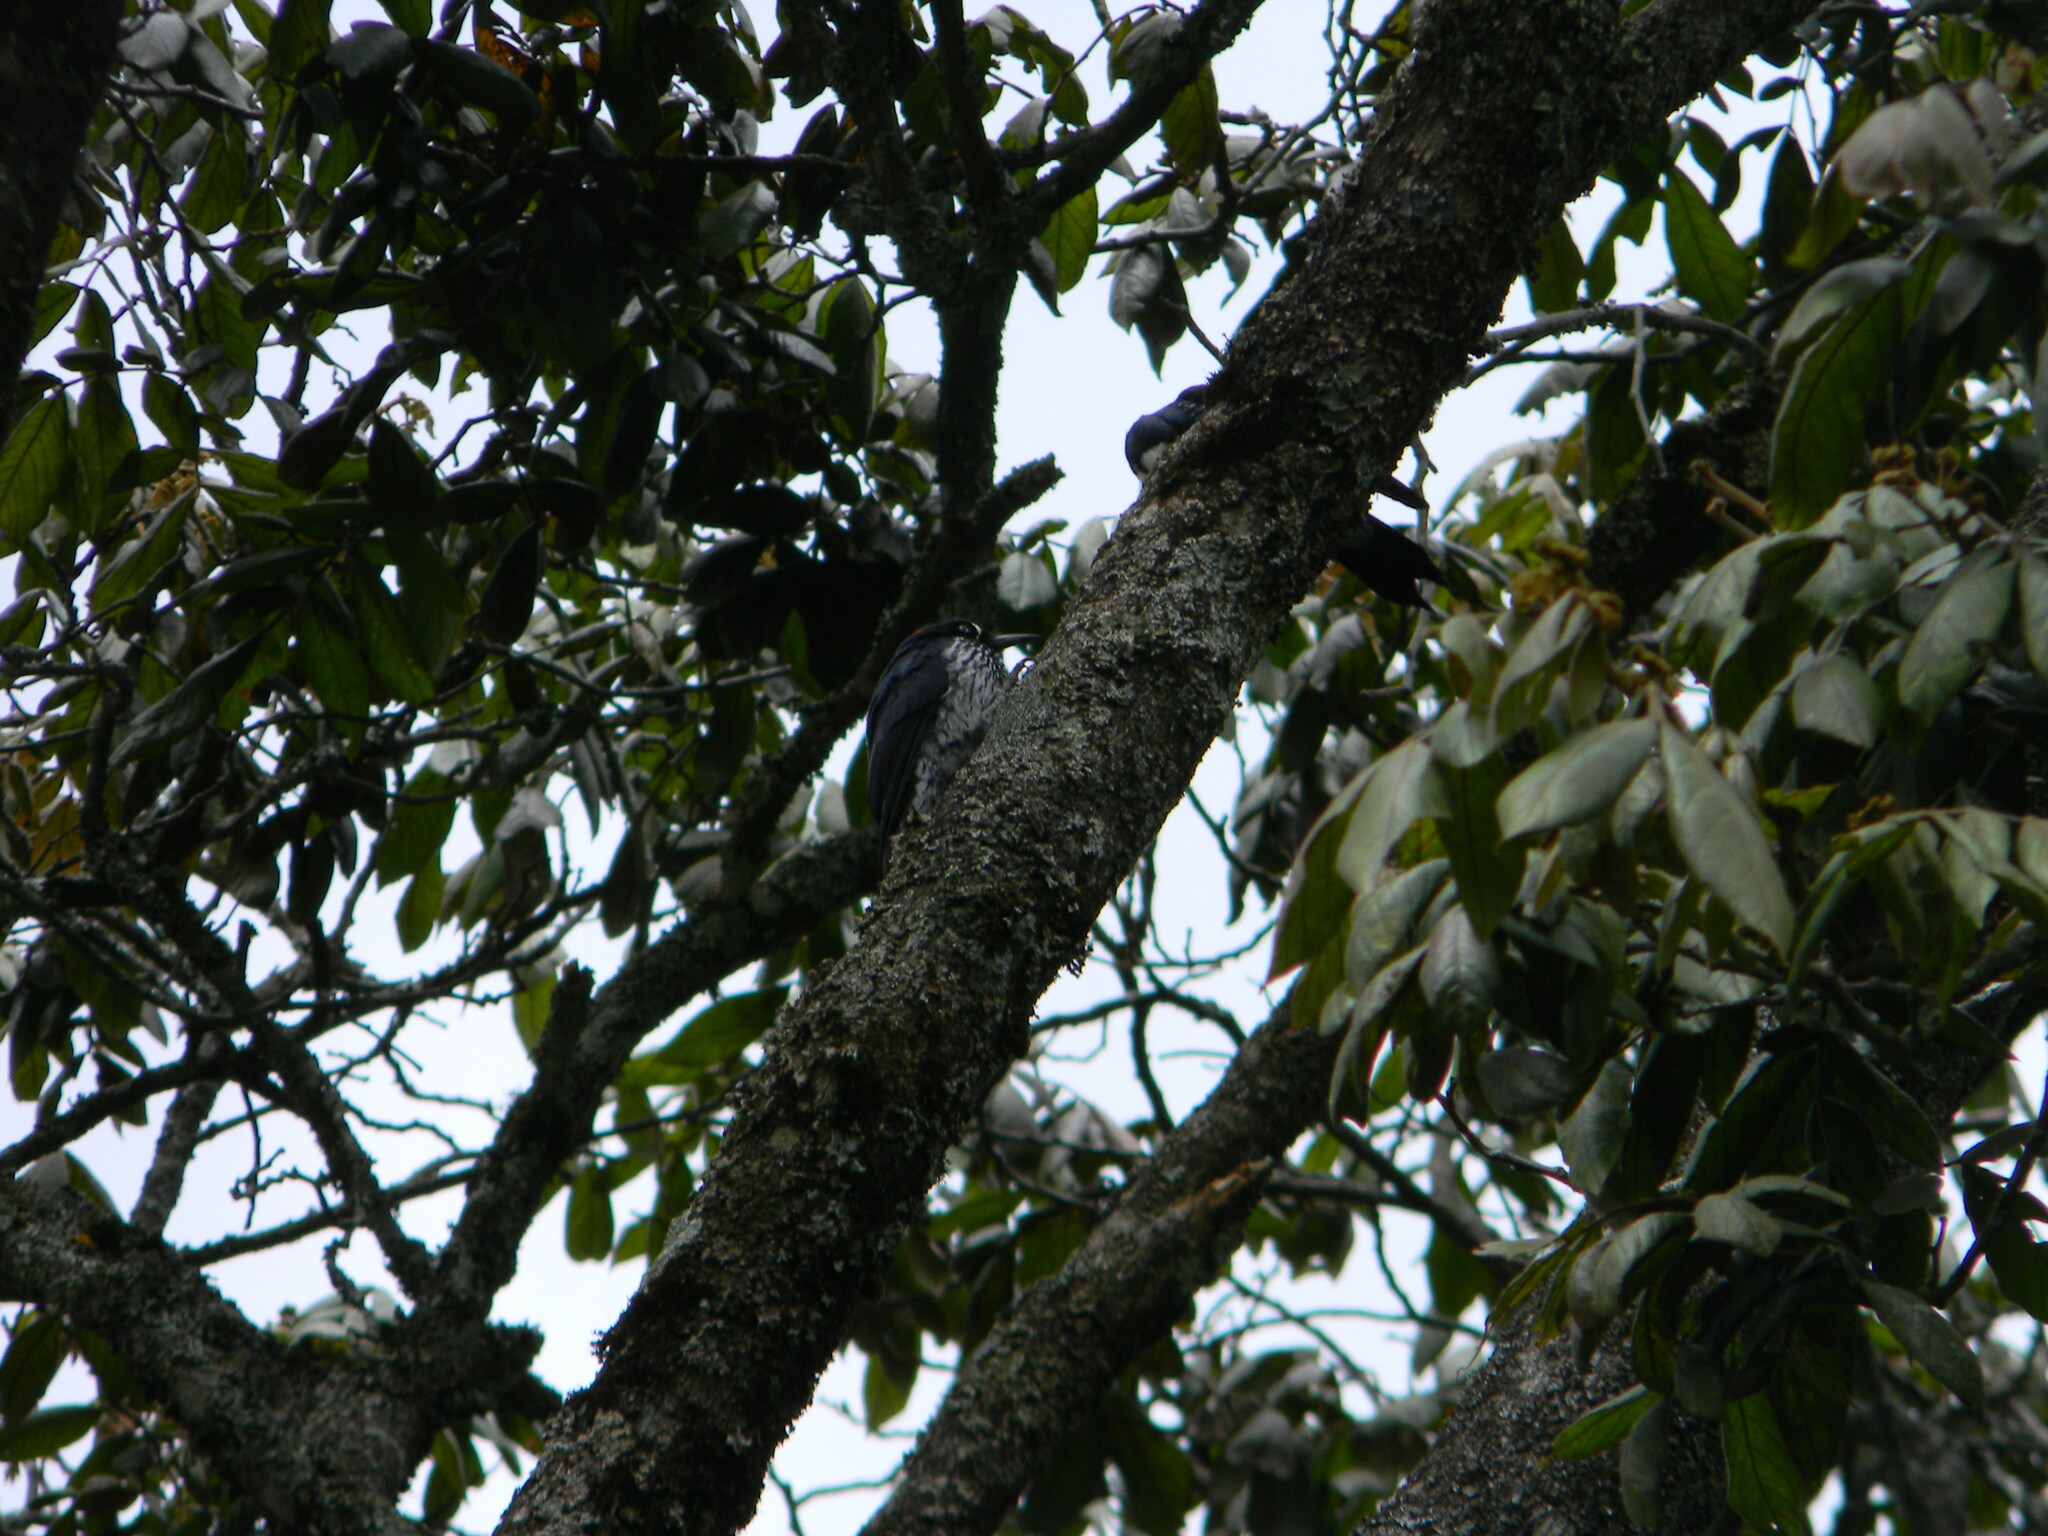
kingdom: Animalia
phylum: Chordata
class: Aves
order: Piciformes
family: Picidae
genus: Melanerpes
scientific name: Melanerpes formicivorus
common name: Acorn woodpecker
